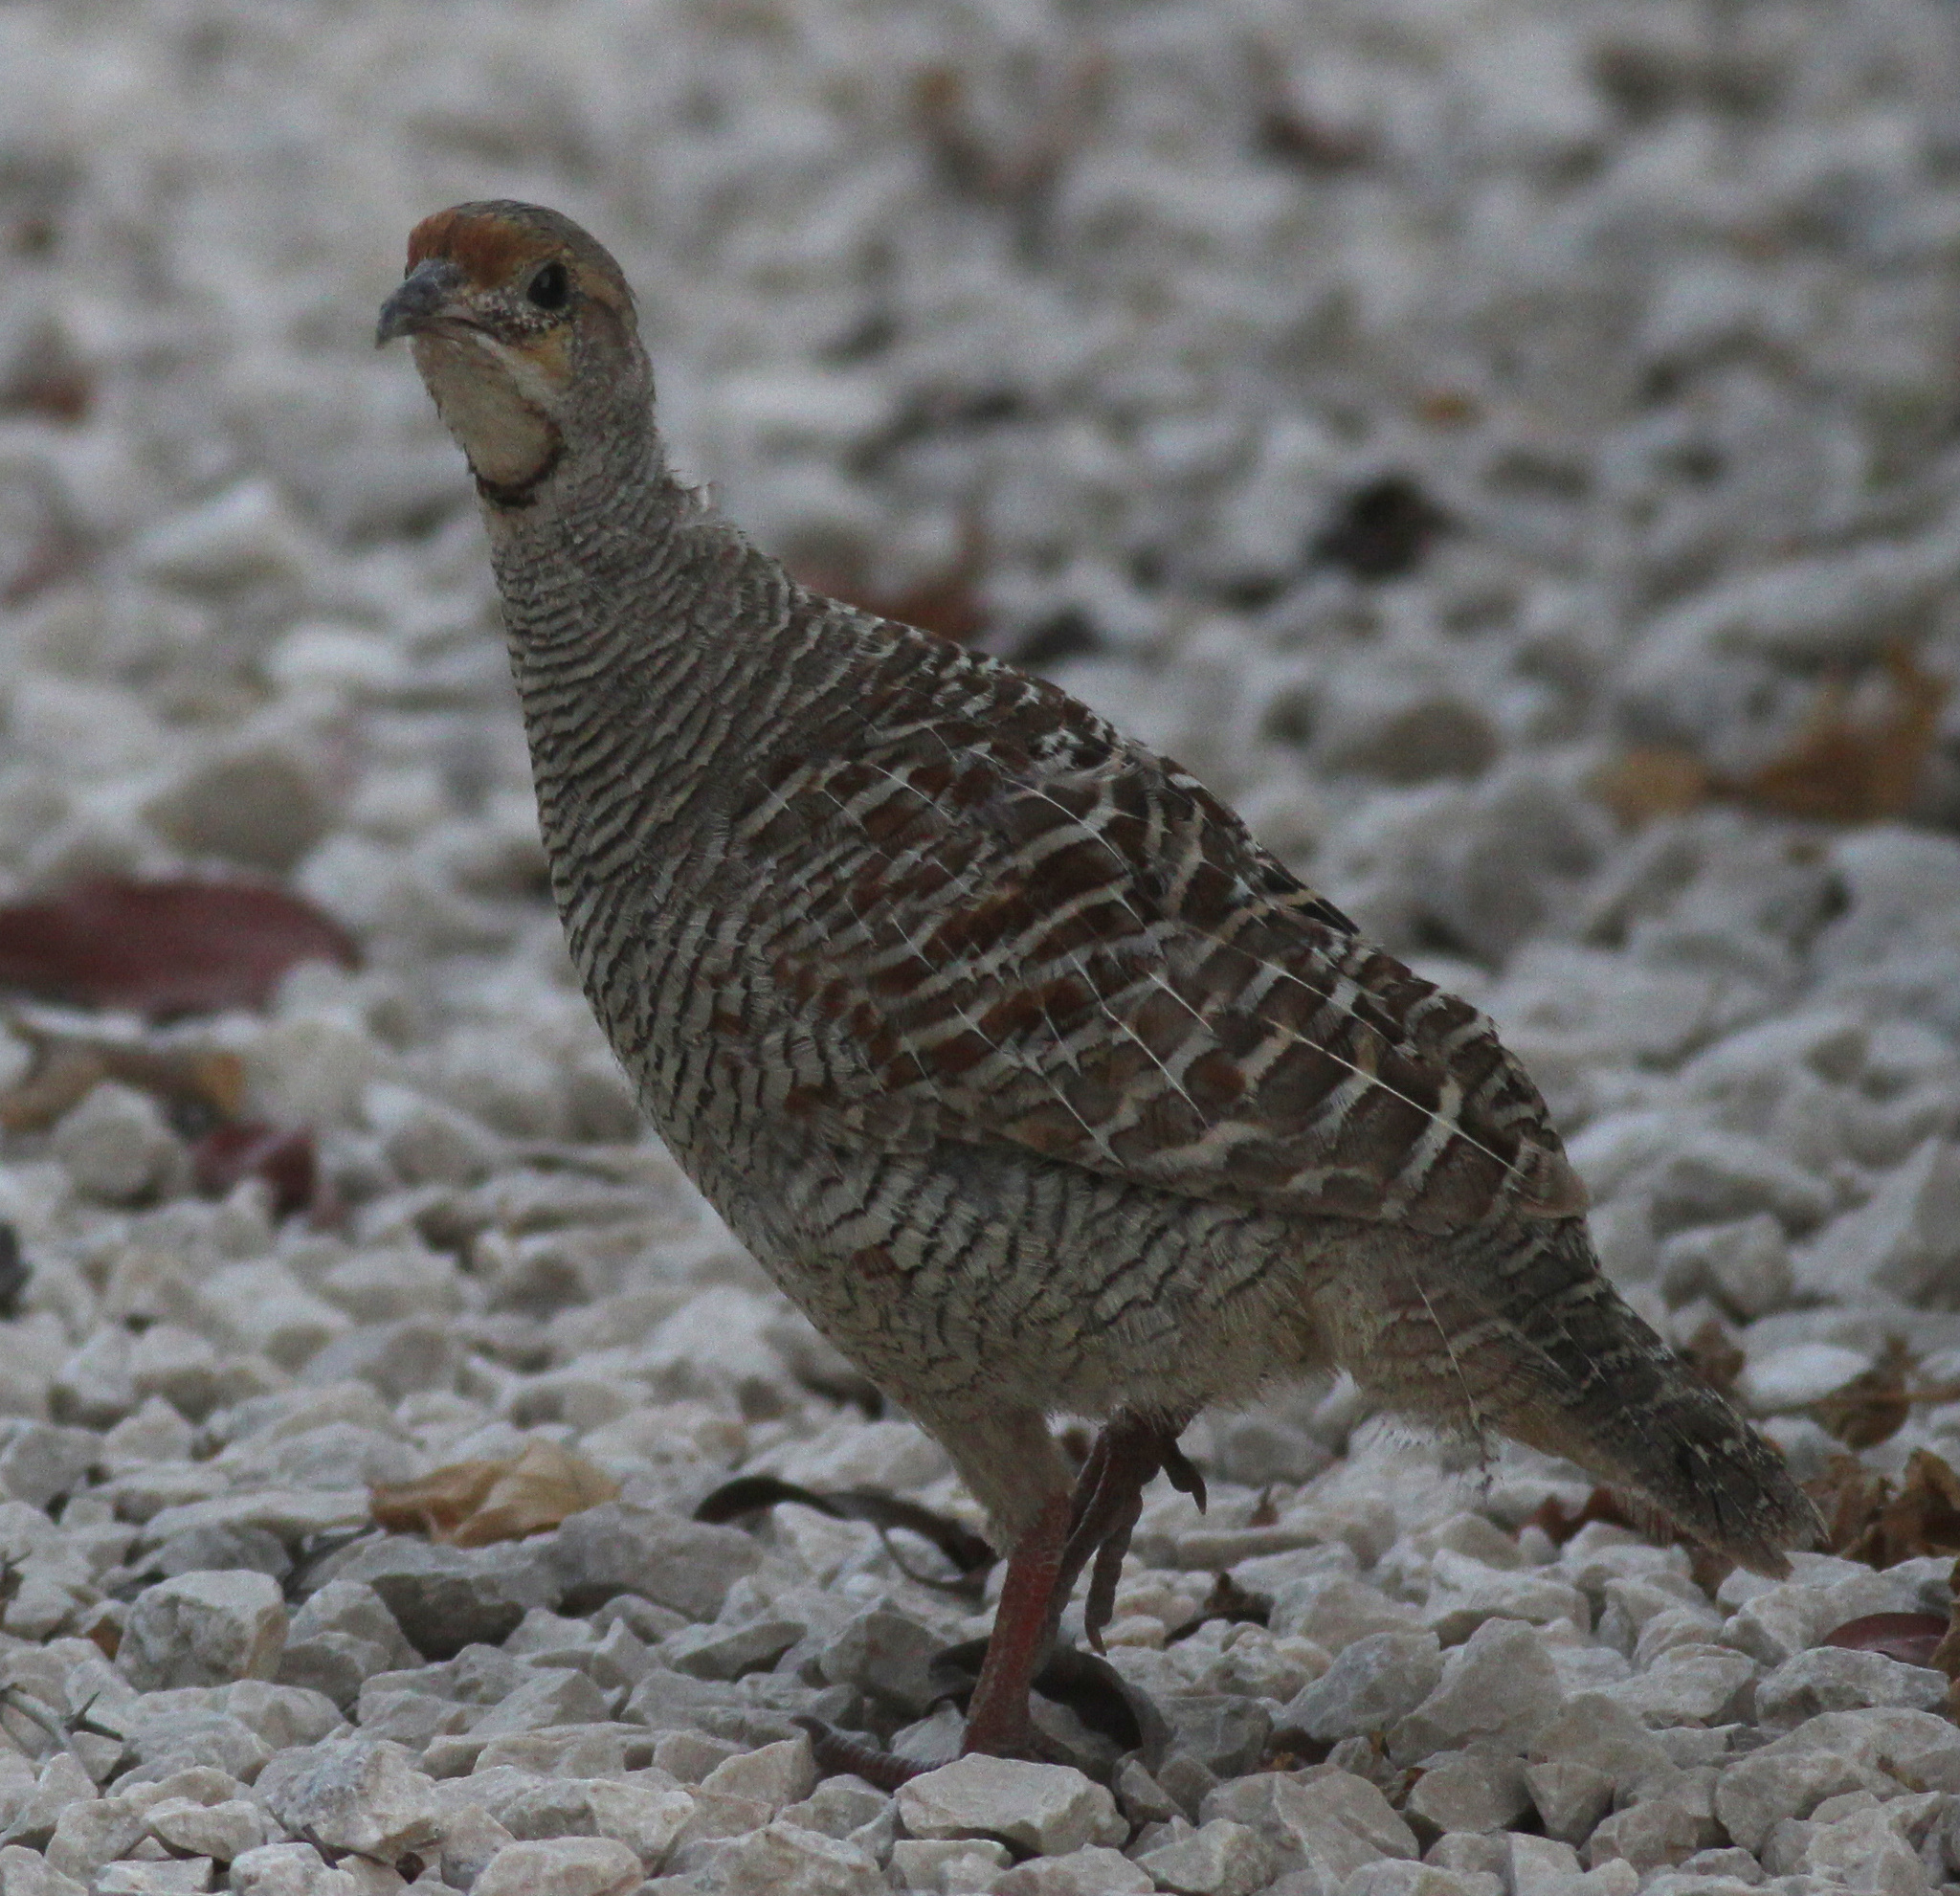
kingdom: Animalia
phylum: Chordata
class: Aves
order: Galliformes
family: Phasianidae
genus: Ortygornis
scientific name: Ortygornis pondicerianus
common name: Grey francolin
